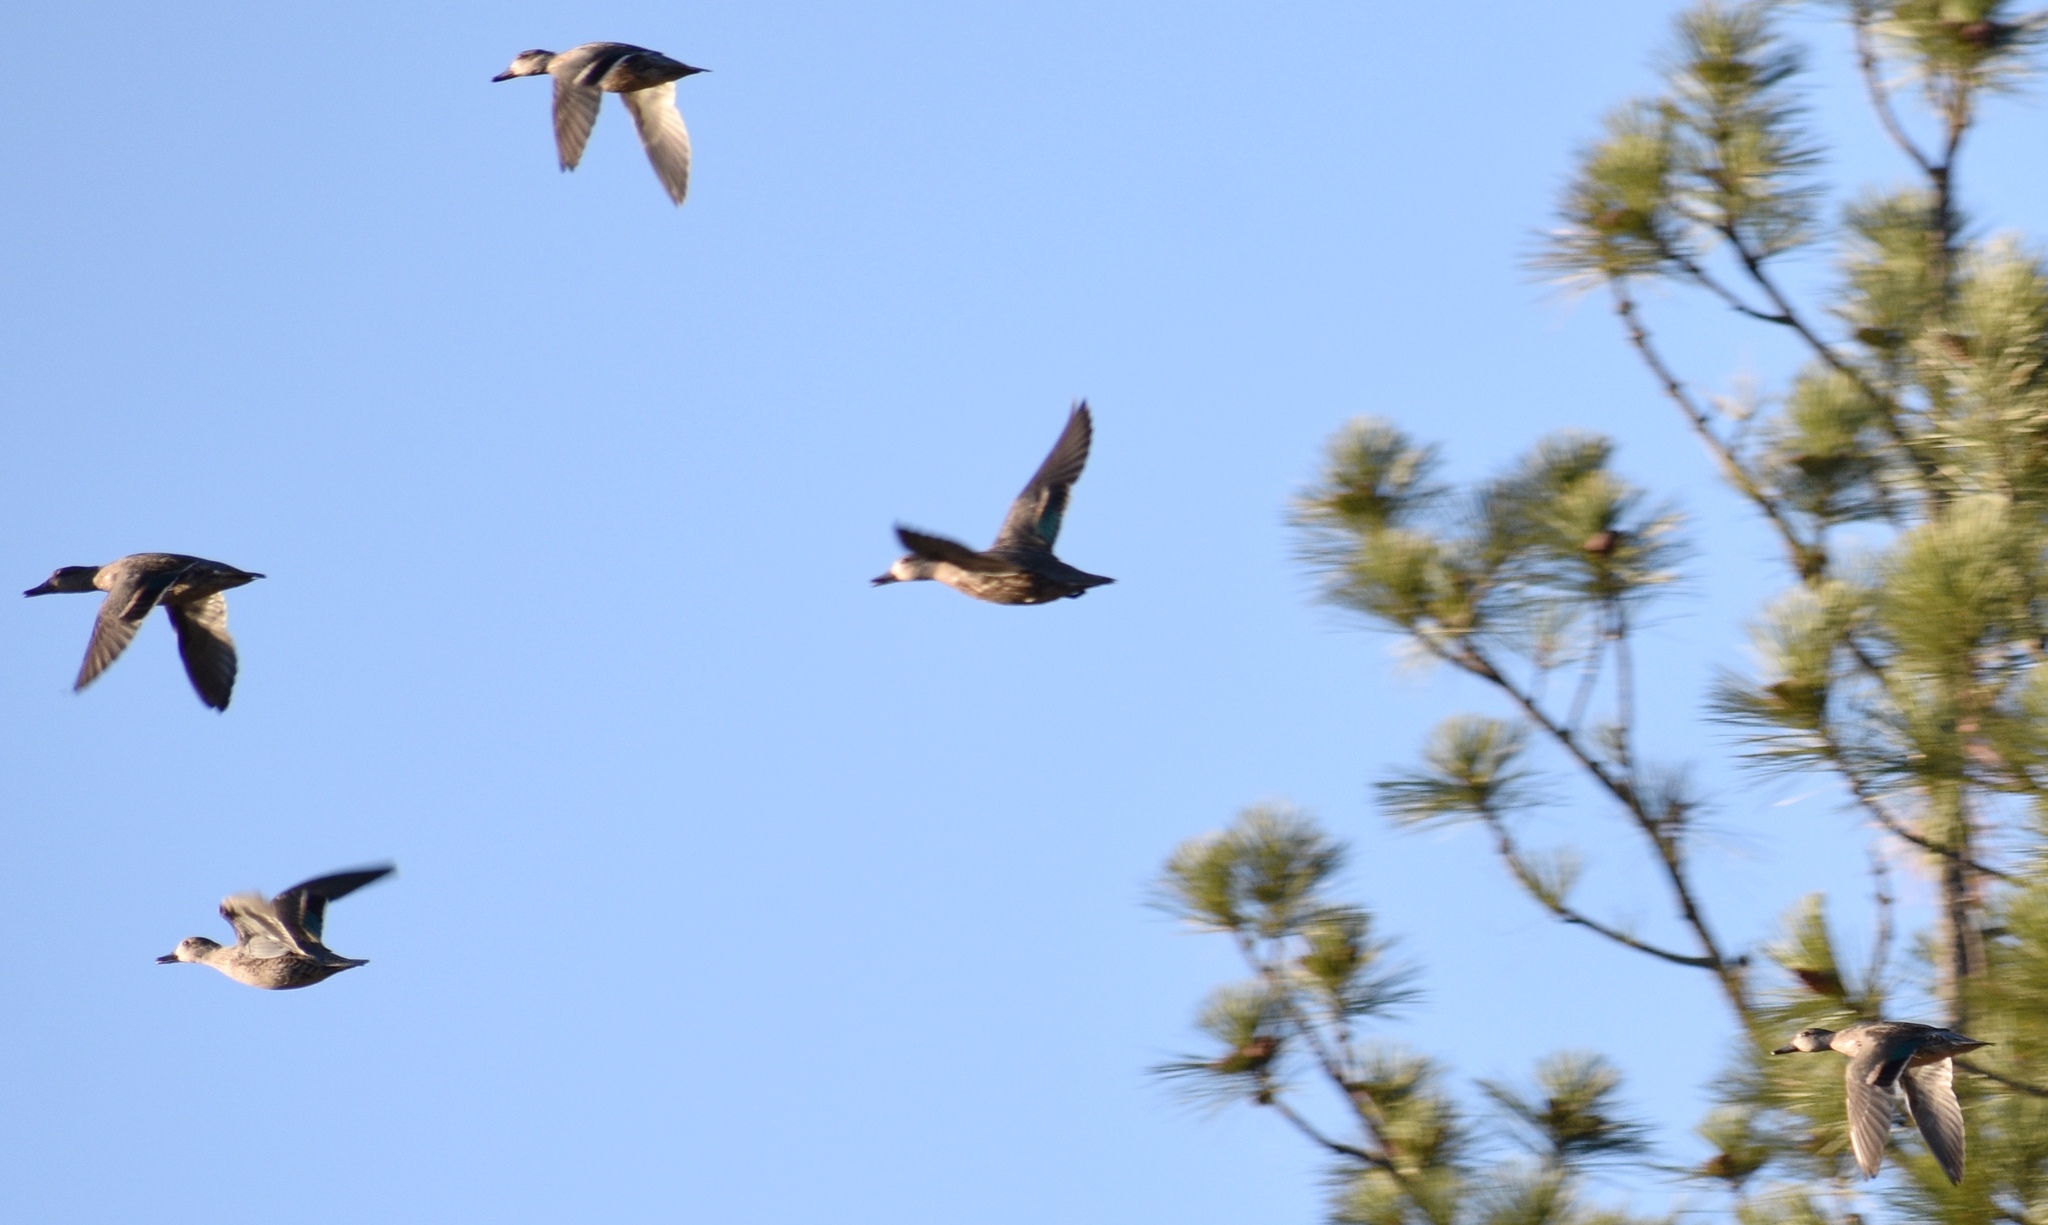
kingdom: Animalia
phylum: Chordata
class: Aves
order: Anseriformes
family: Anatidae
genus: Anas
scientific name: Anas crecca
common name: Eurasian teal
